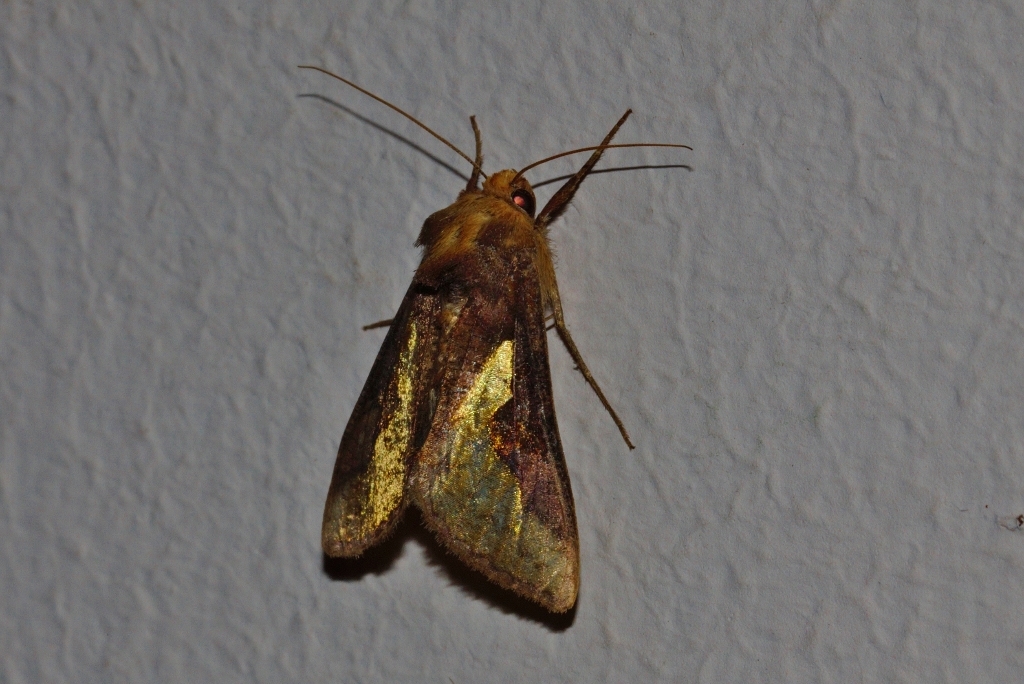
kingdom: Animalia
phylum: Arthropoda
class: Insecta
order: Lepidoptera
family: Noctuidae
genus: Thysanoplusia
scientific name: Thysanoplusia orichalcea
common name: Slender burnished brass, golden plusia
